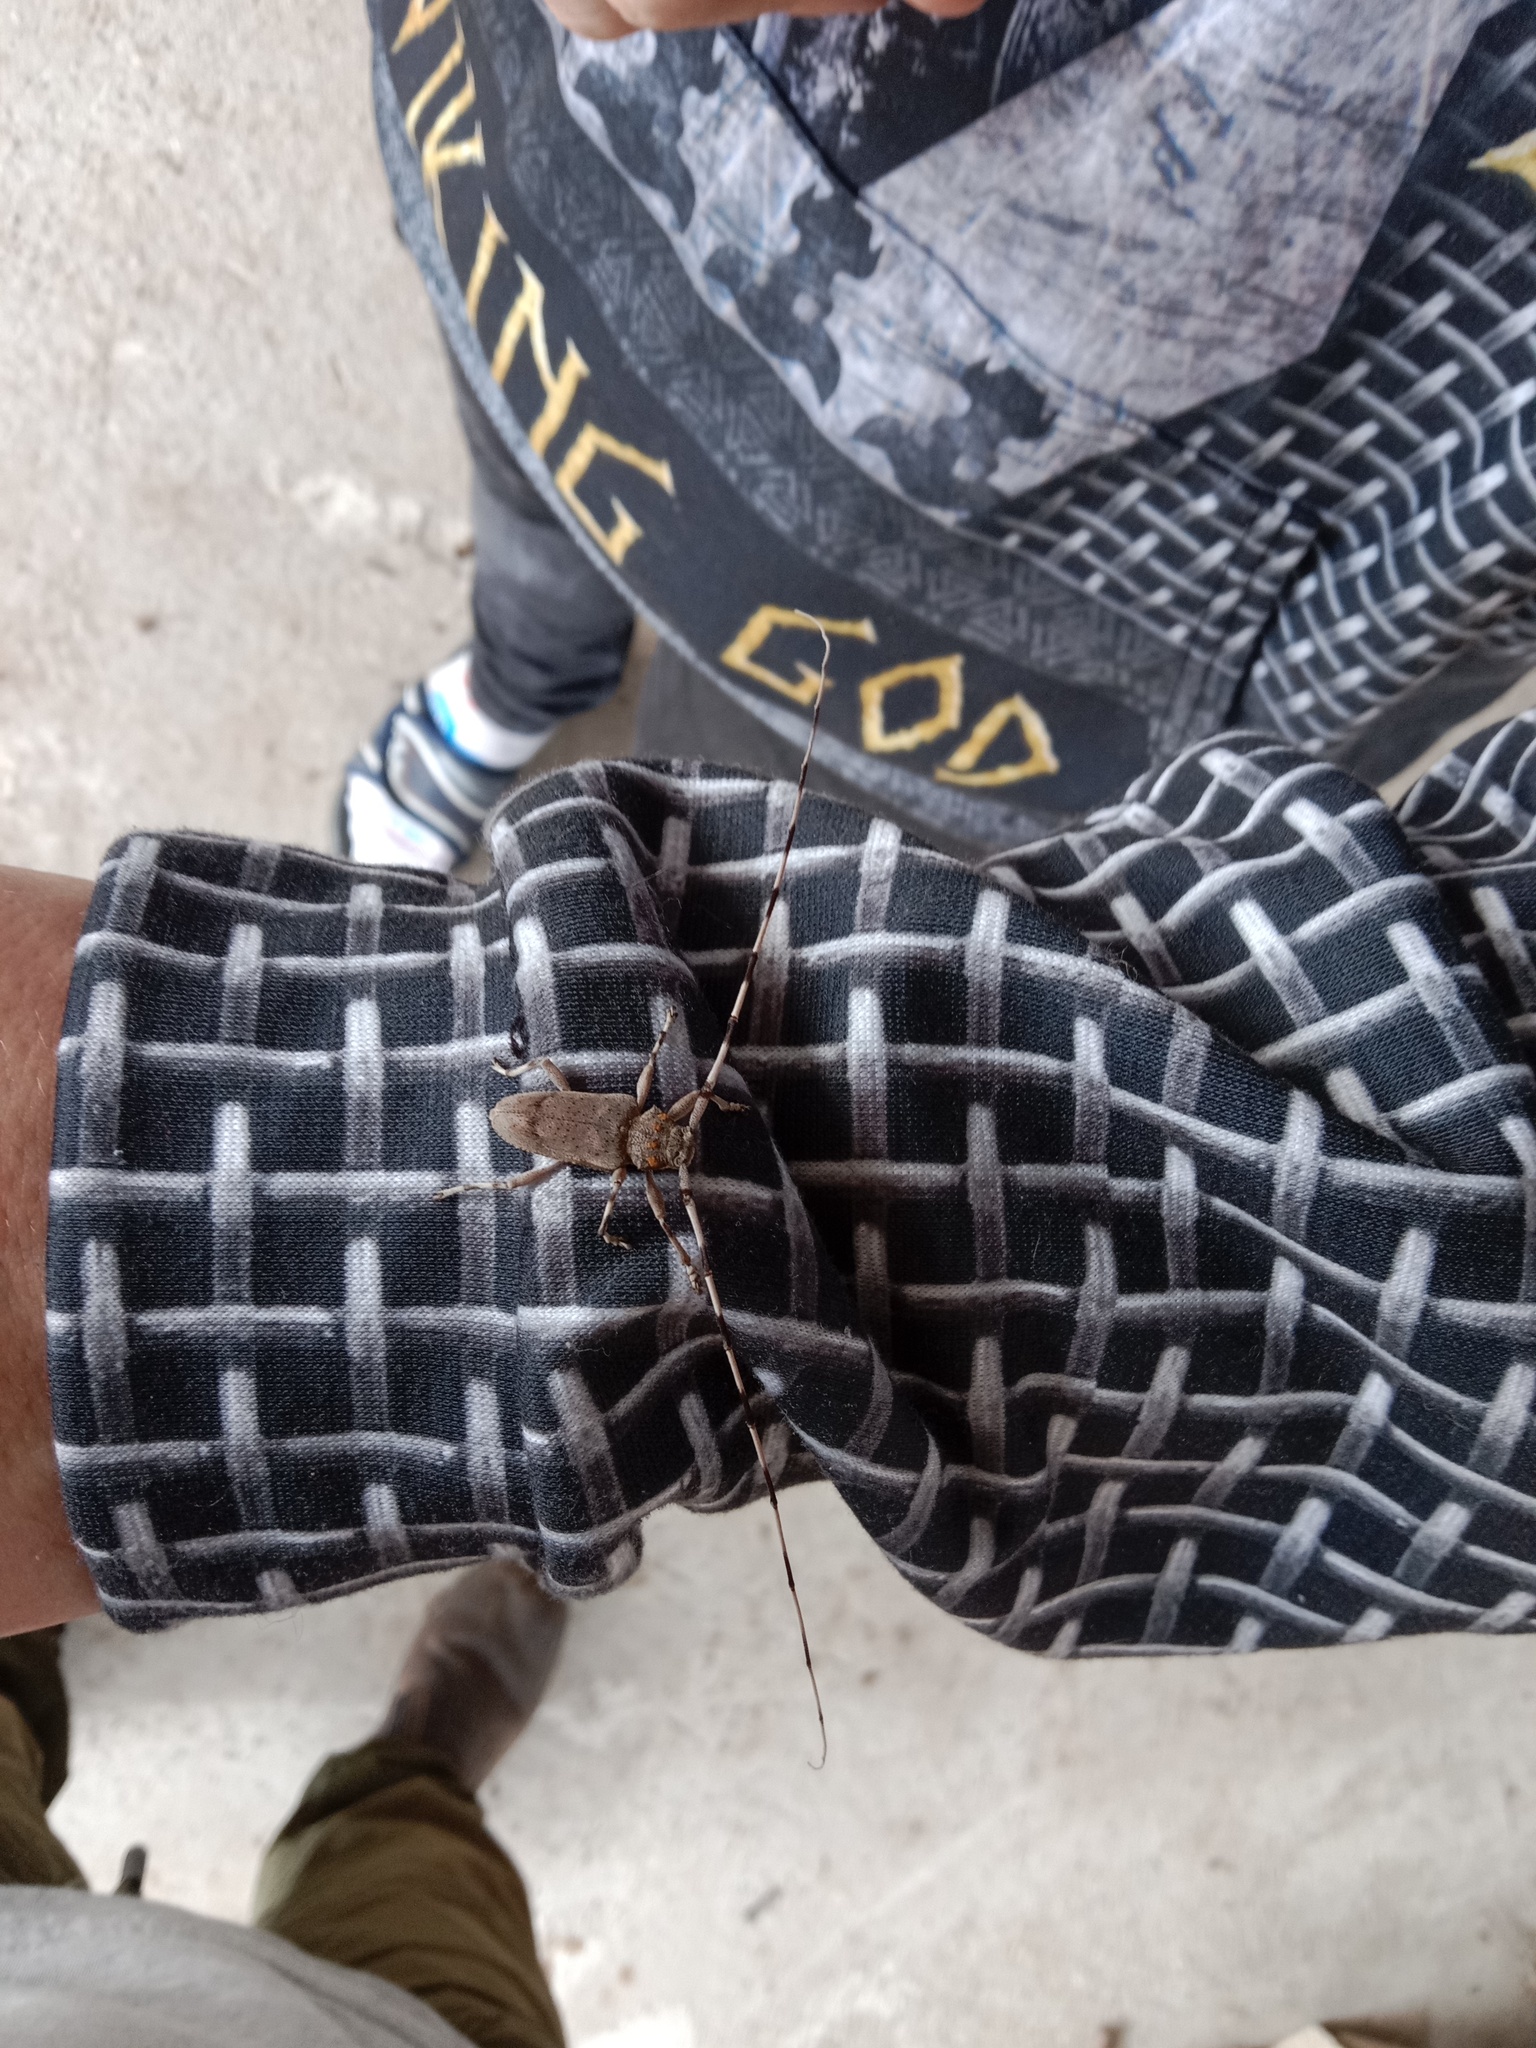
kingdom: Animalia
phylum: Arthropoda
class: Insecta
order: Coleoptera
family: Cerambycidae
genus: Acanthocinus
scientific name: Acanthocinus aedilis
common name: Timberman beetle
